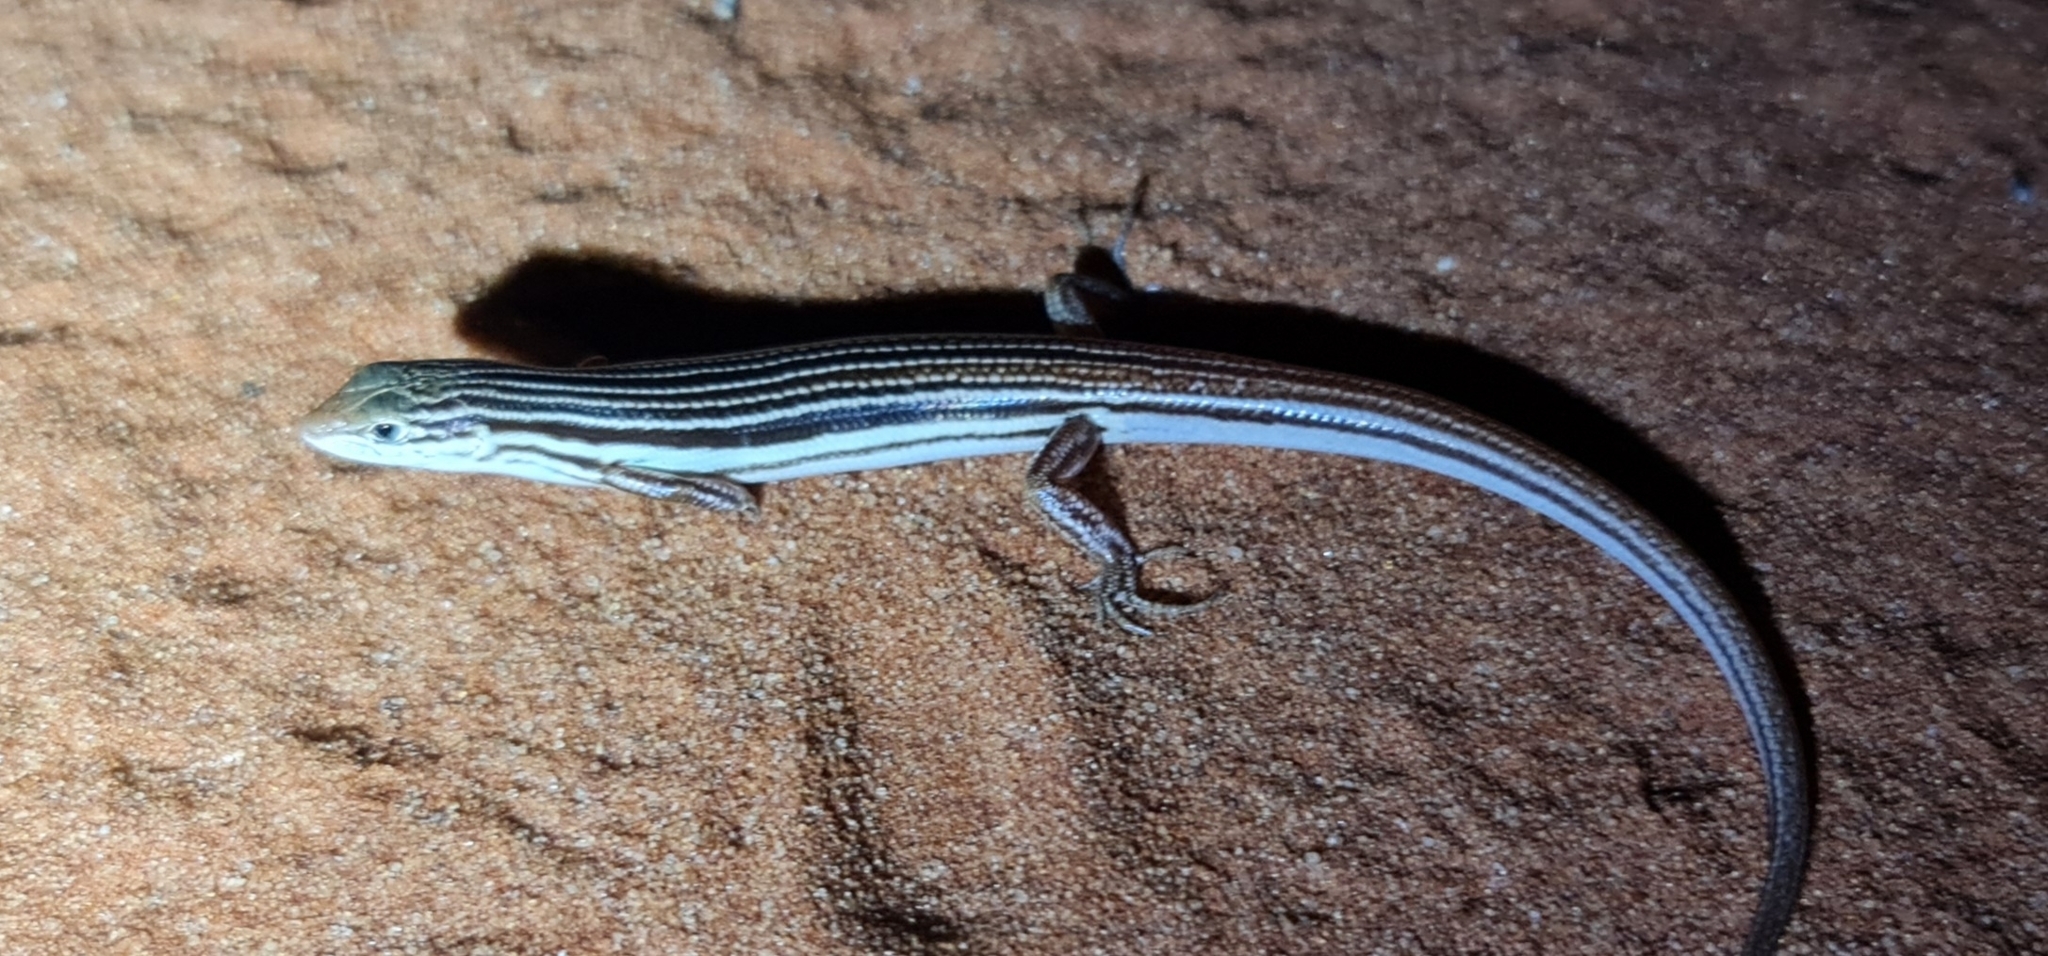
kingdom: Animalia
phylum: Chordata
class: Squamata
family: Scincidae
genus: Ctenotus
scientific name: Ctenotus leae
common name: Orange-tailed finesnout ctenotus
